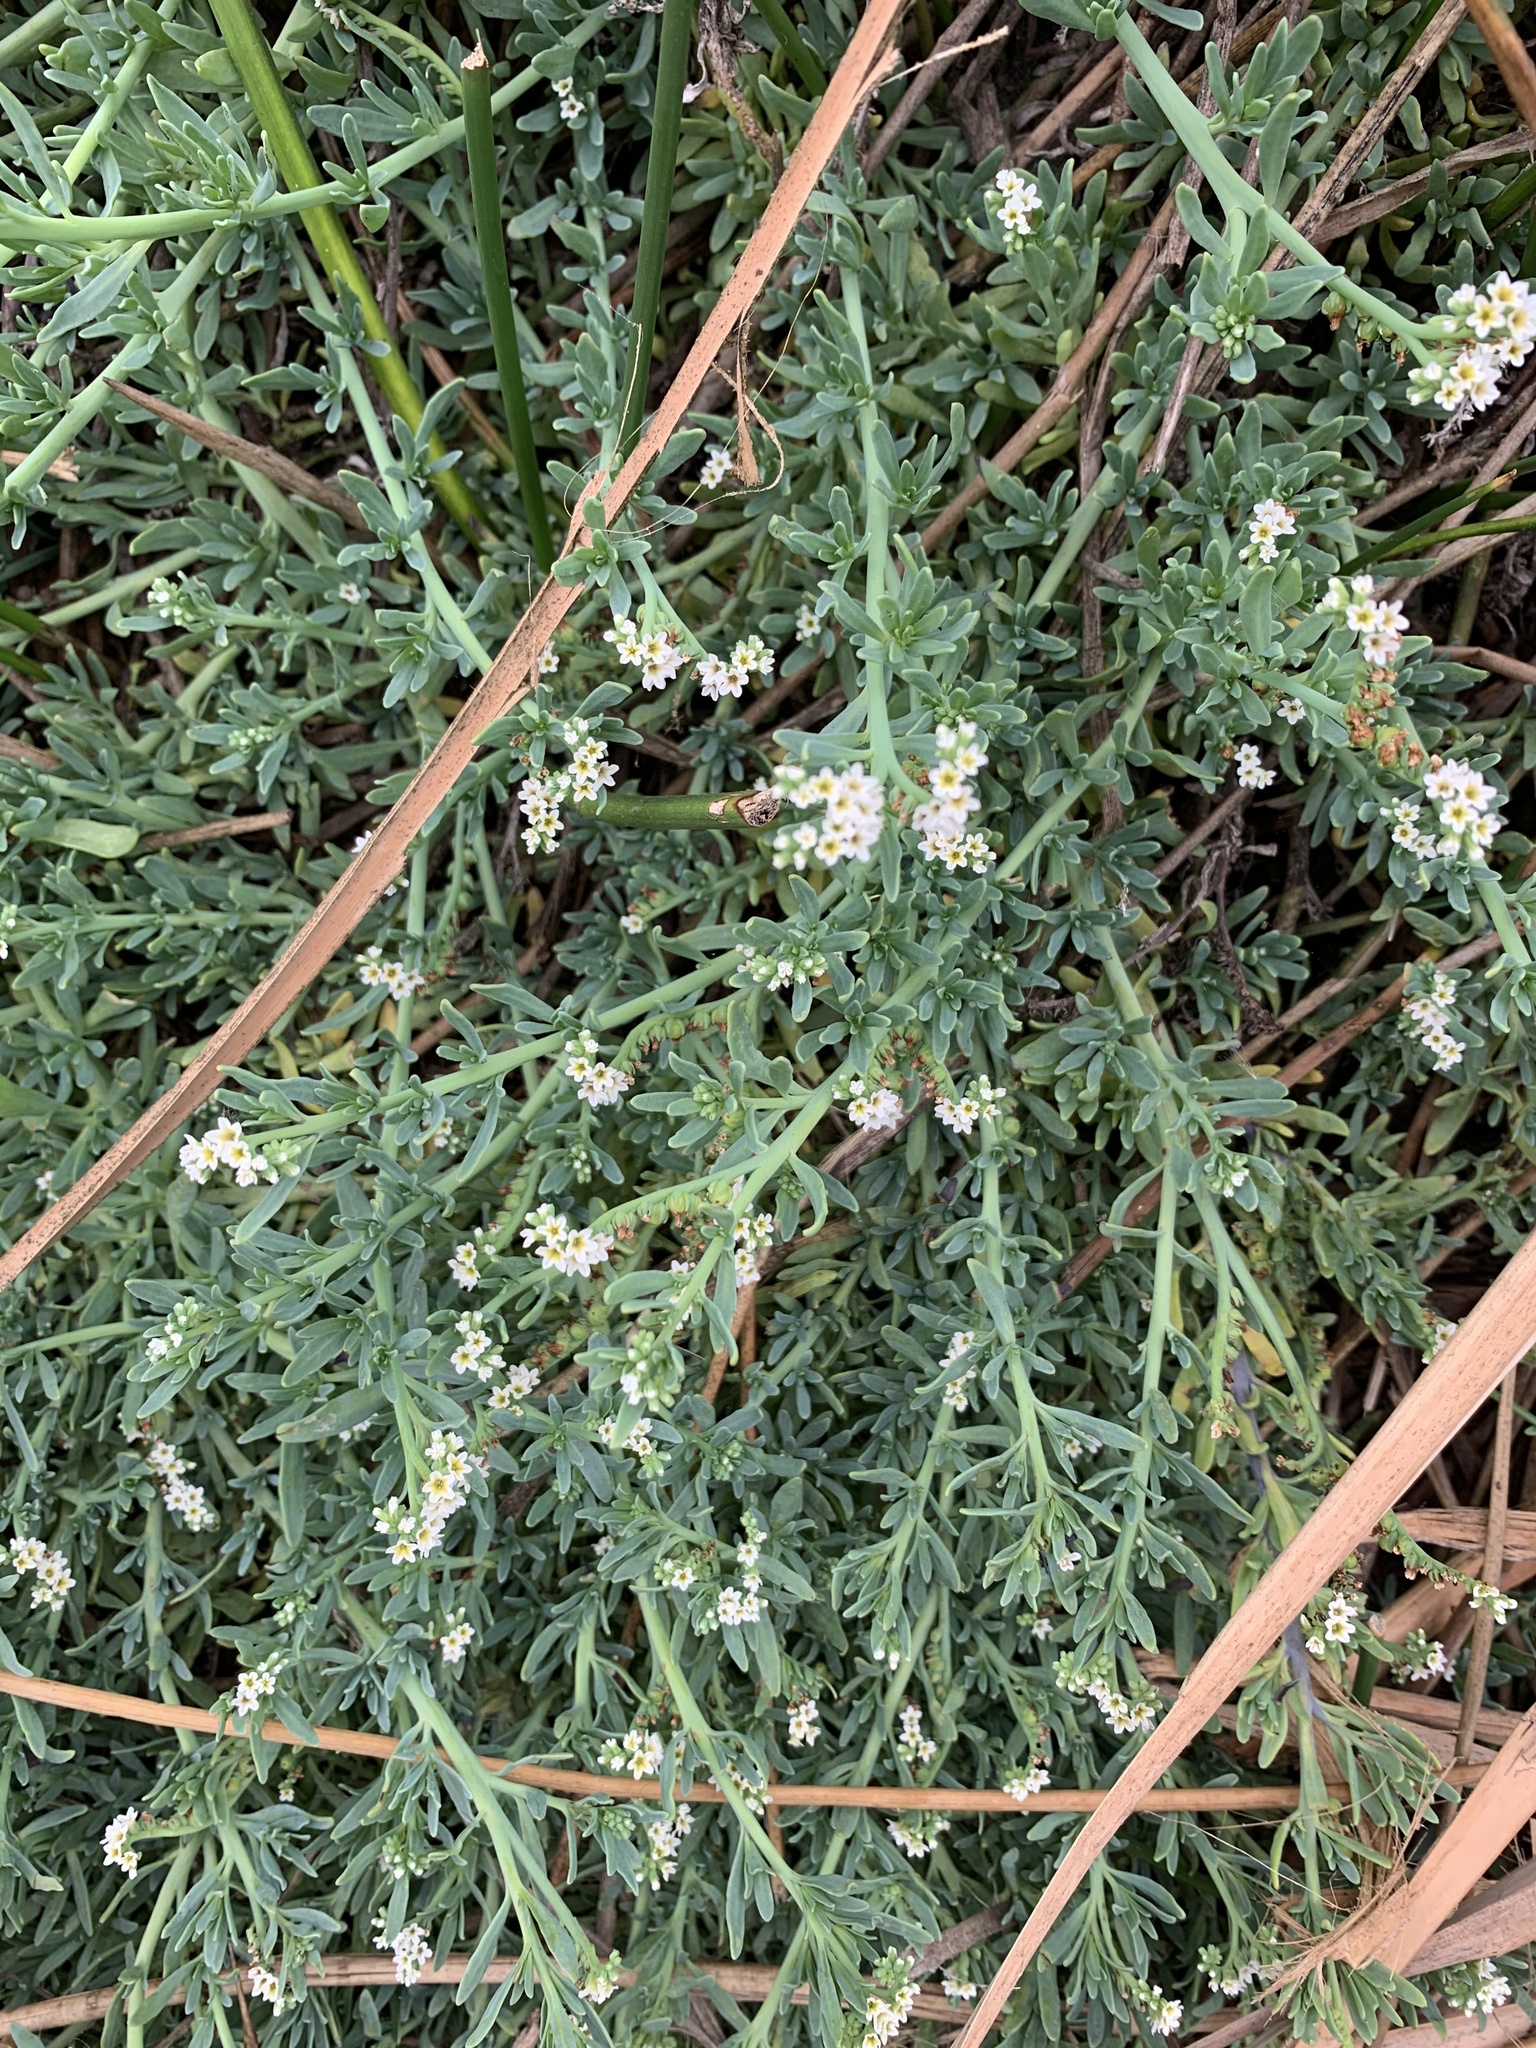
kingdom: Plantae
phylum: Tracheophyta
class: Magnoliopsida
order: Boraginales
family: Heliotropiaceae
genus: Heliotropium
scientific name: Heliotropium curassavicum
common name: Seaside heliotrope
